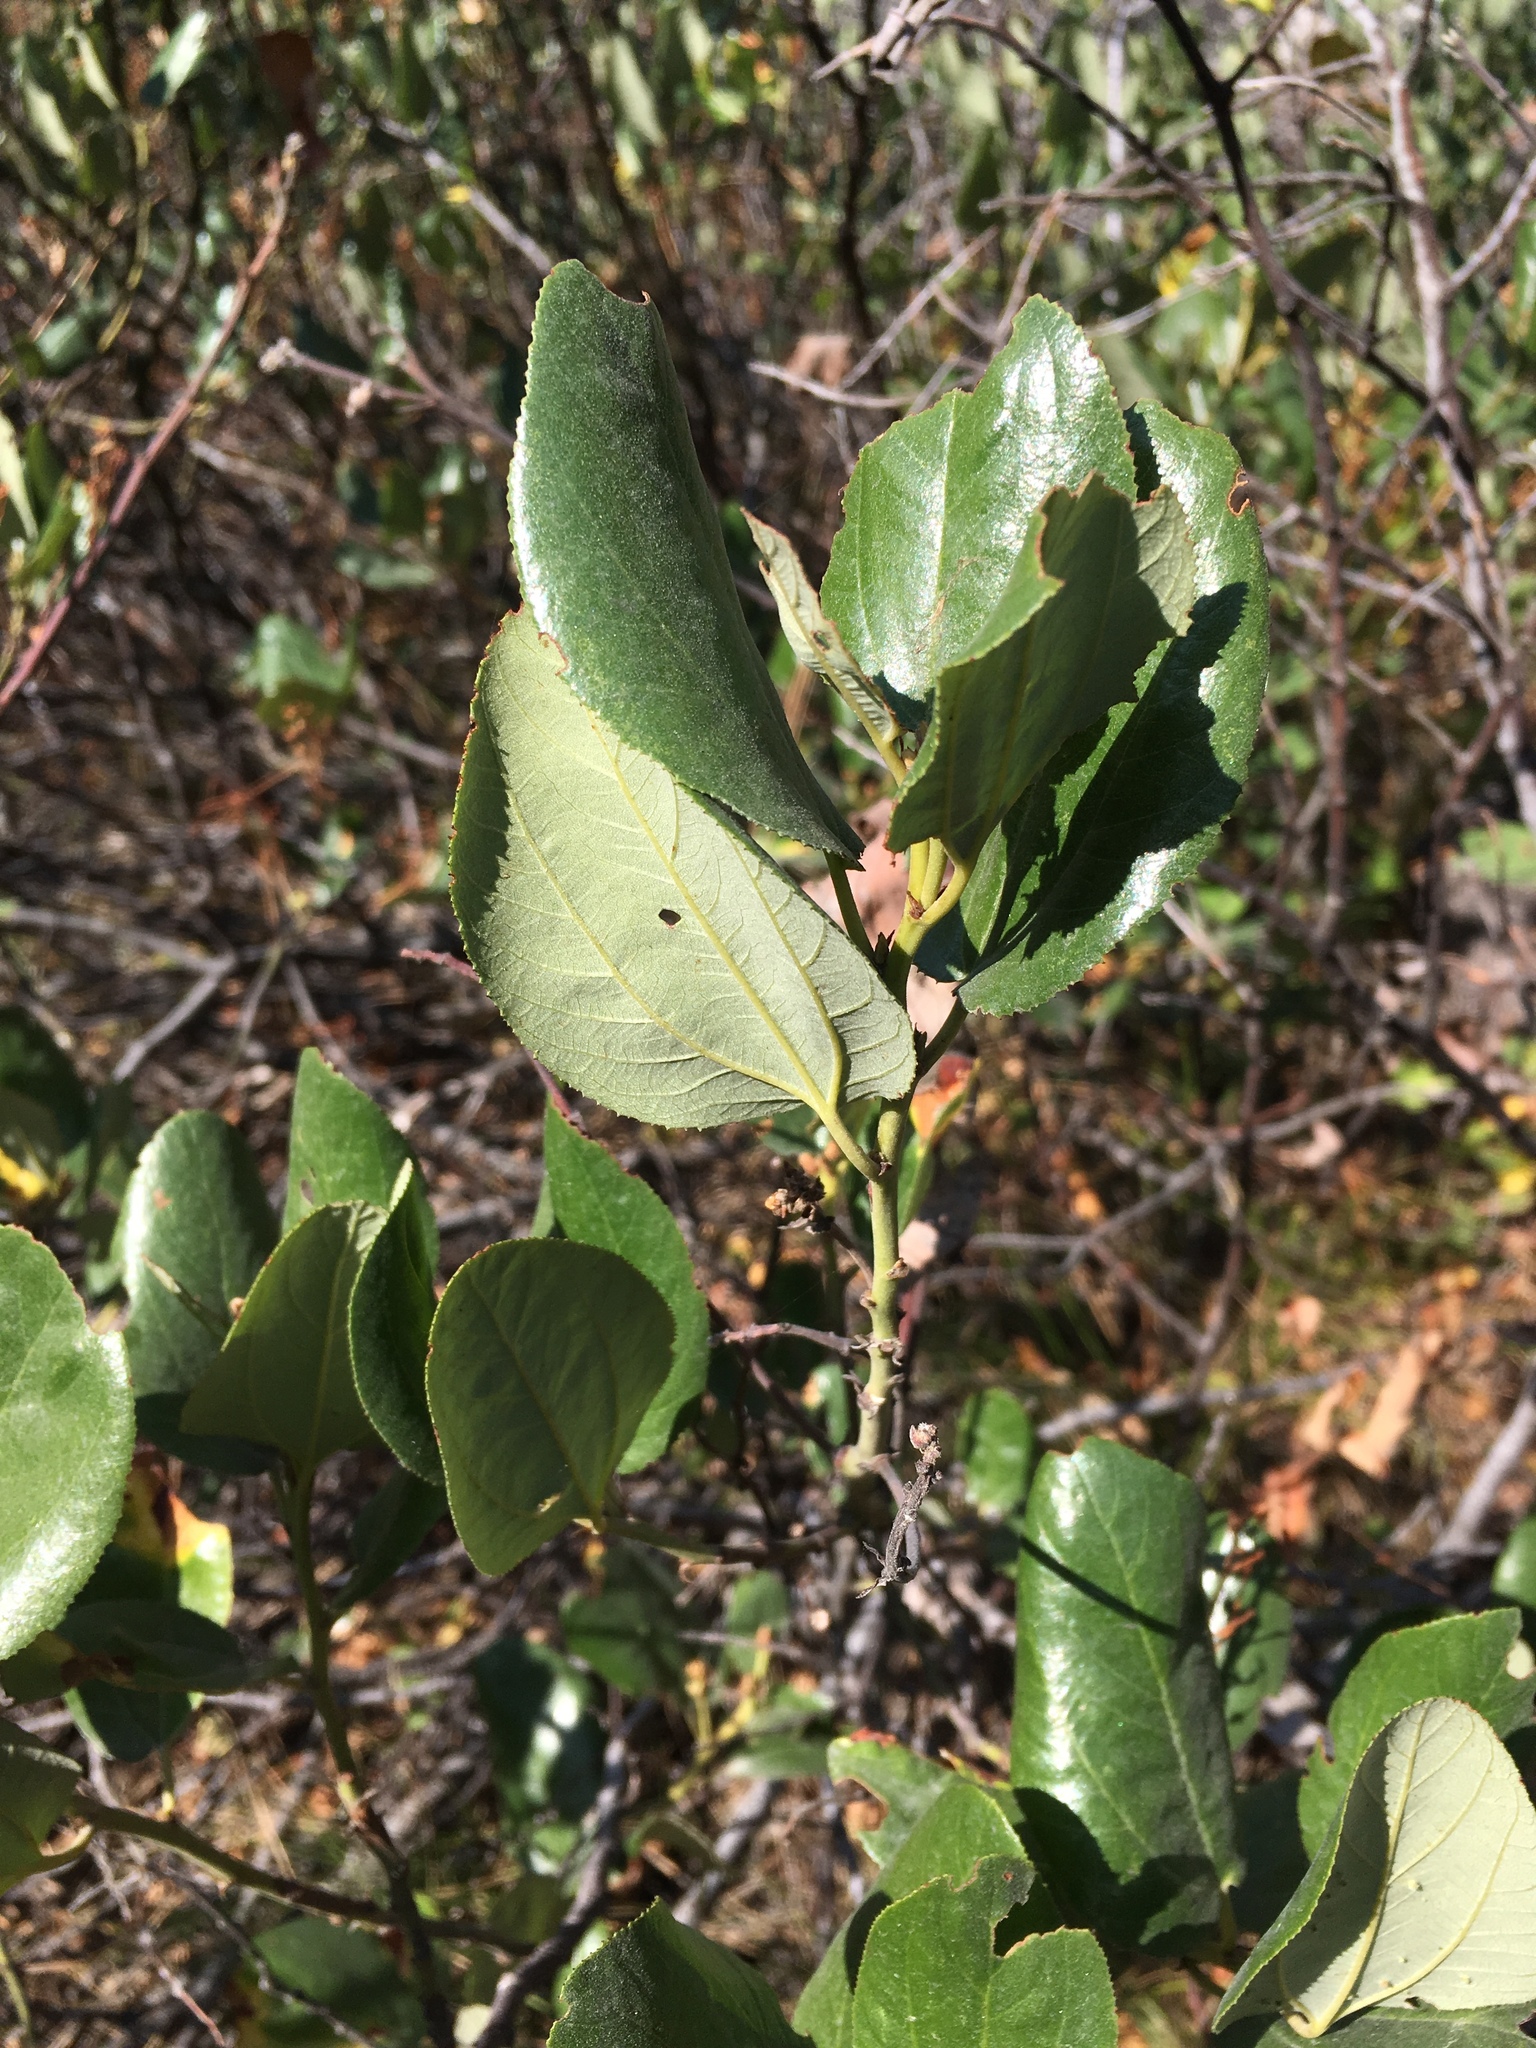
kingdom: Plantae
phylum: Tracheophyta
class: Magnoliopsida
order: Rosales
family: Rhamnaceae
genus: Ceanothus
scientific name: Ceanothus velutinus
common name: Snowbrush
